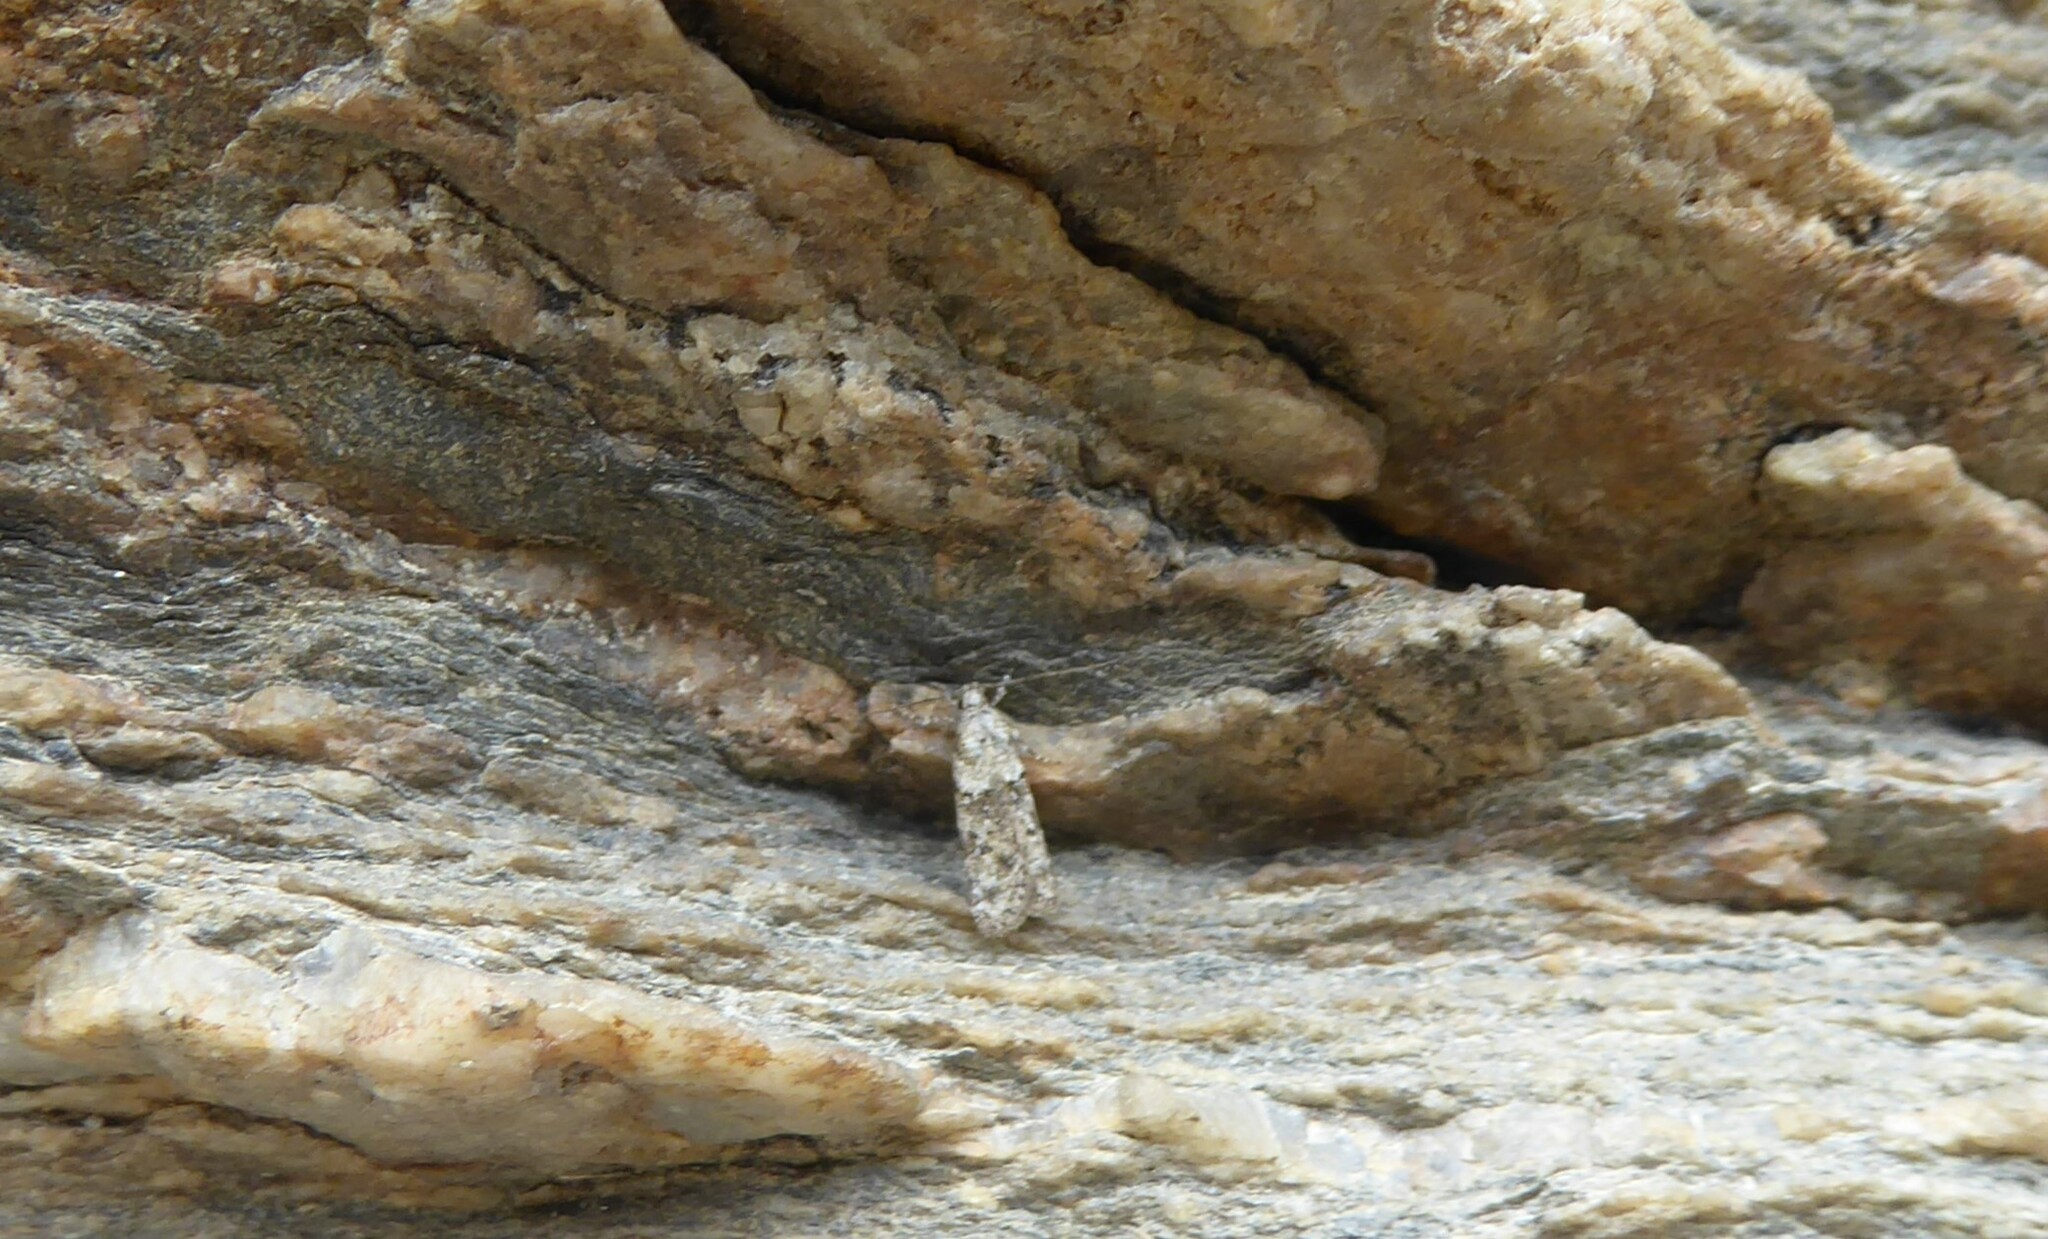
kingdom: Animalia
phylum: Arthropoda
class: Insecta
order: Lepidoptera
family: Oecophoridae
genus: Izatha
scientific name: Izatha gekkonella
